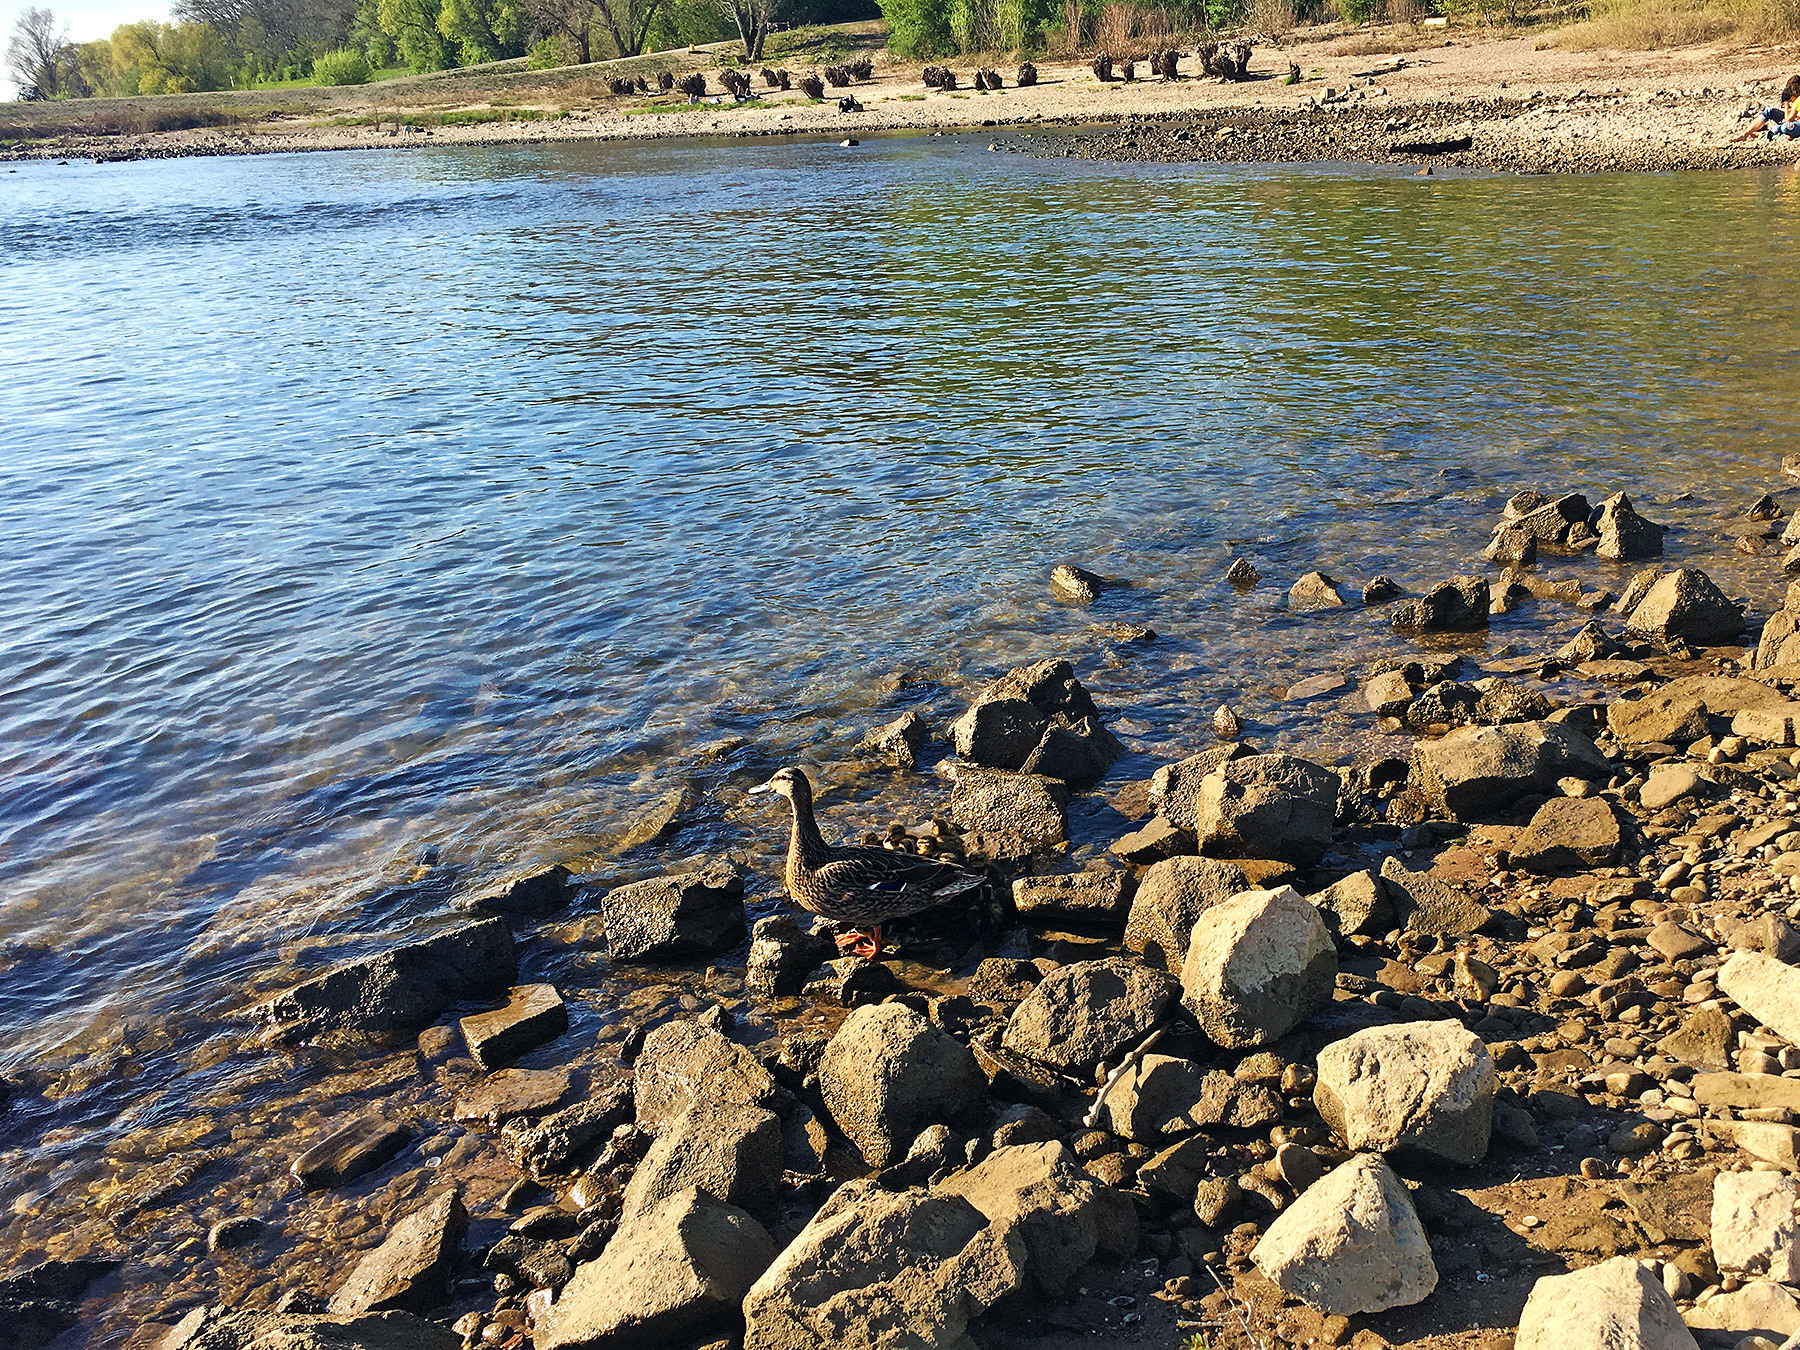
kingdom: Animalia
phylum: Chordata
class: Aves
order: Anseriformes
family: Anatidae
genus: Anas
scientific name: Anas platyrhynchos
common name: Mallard
